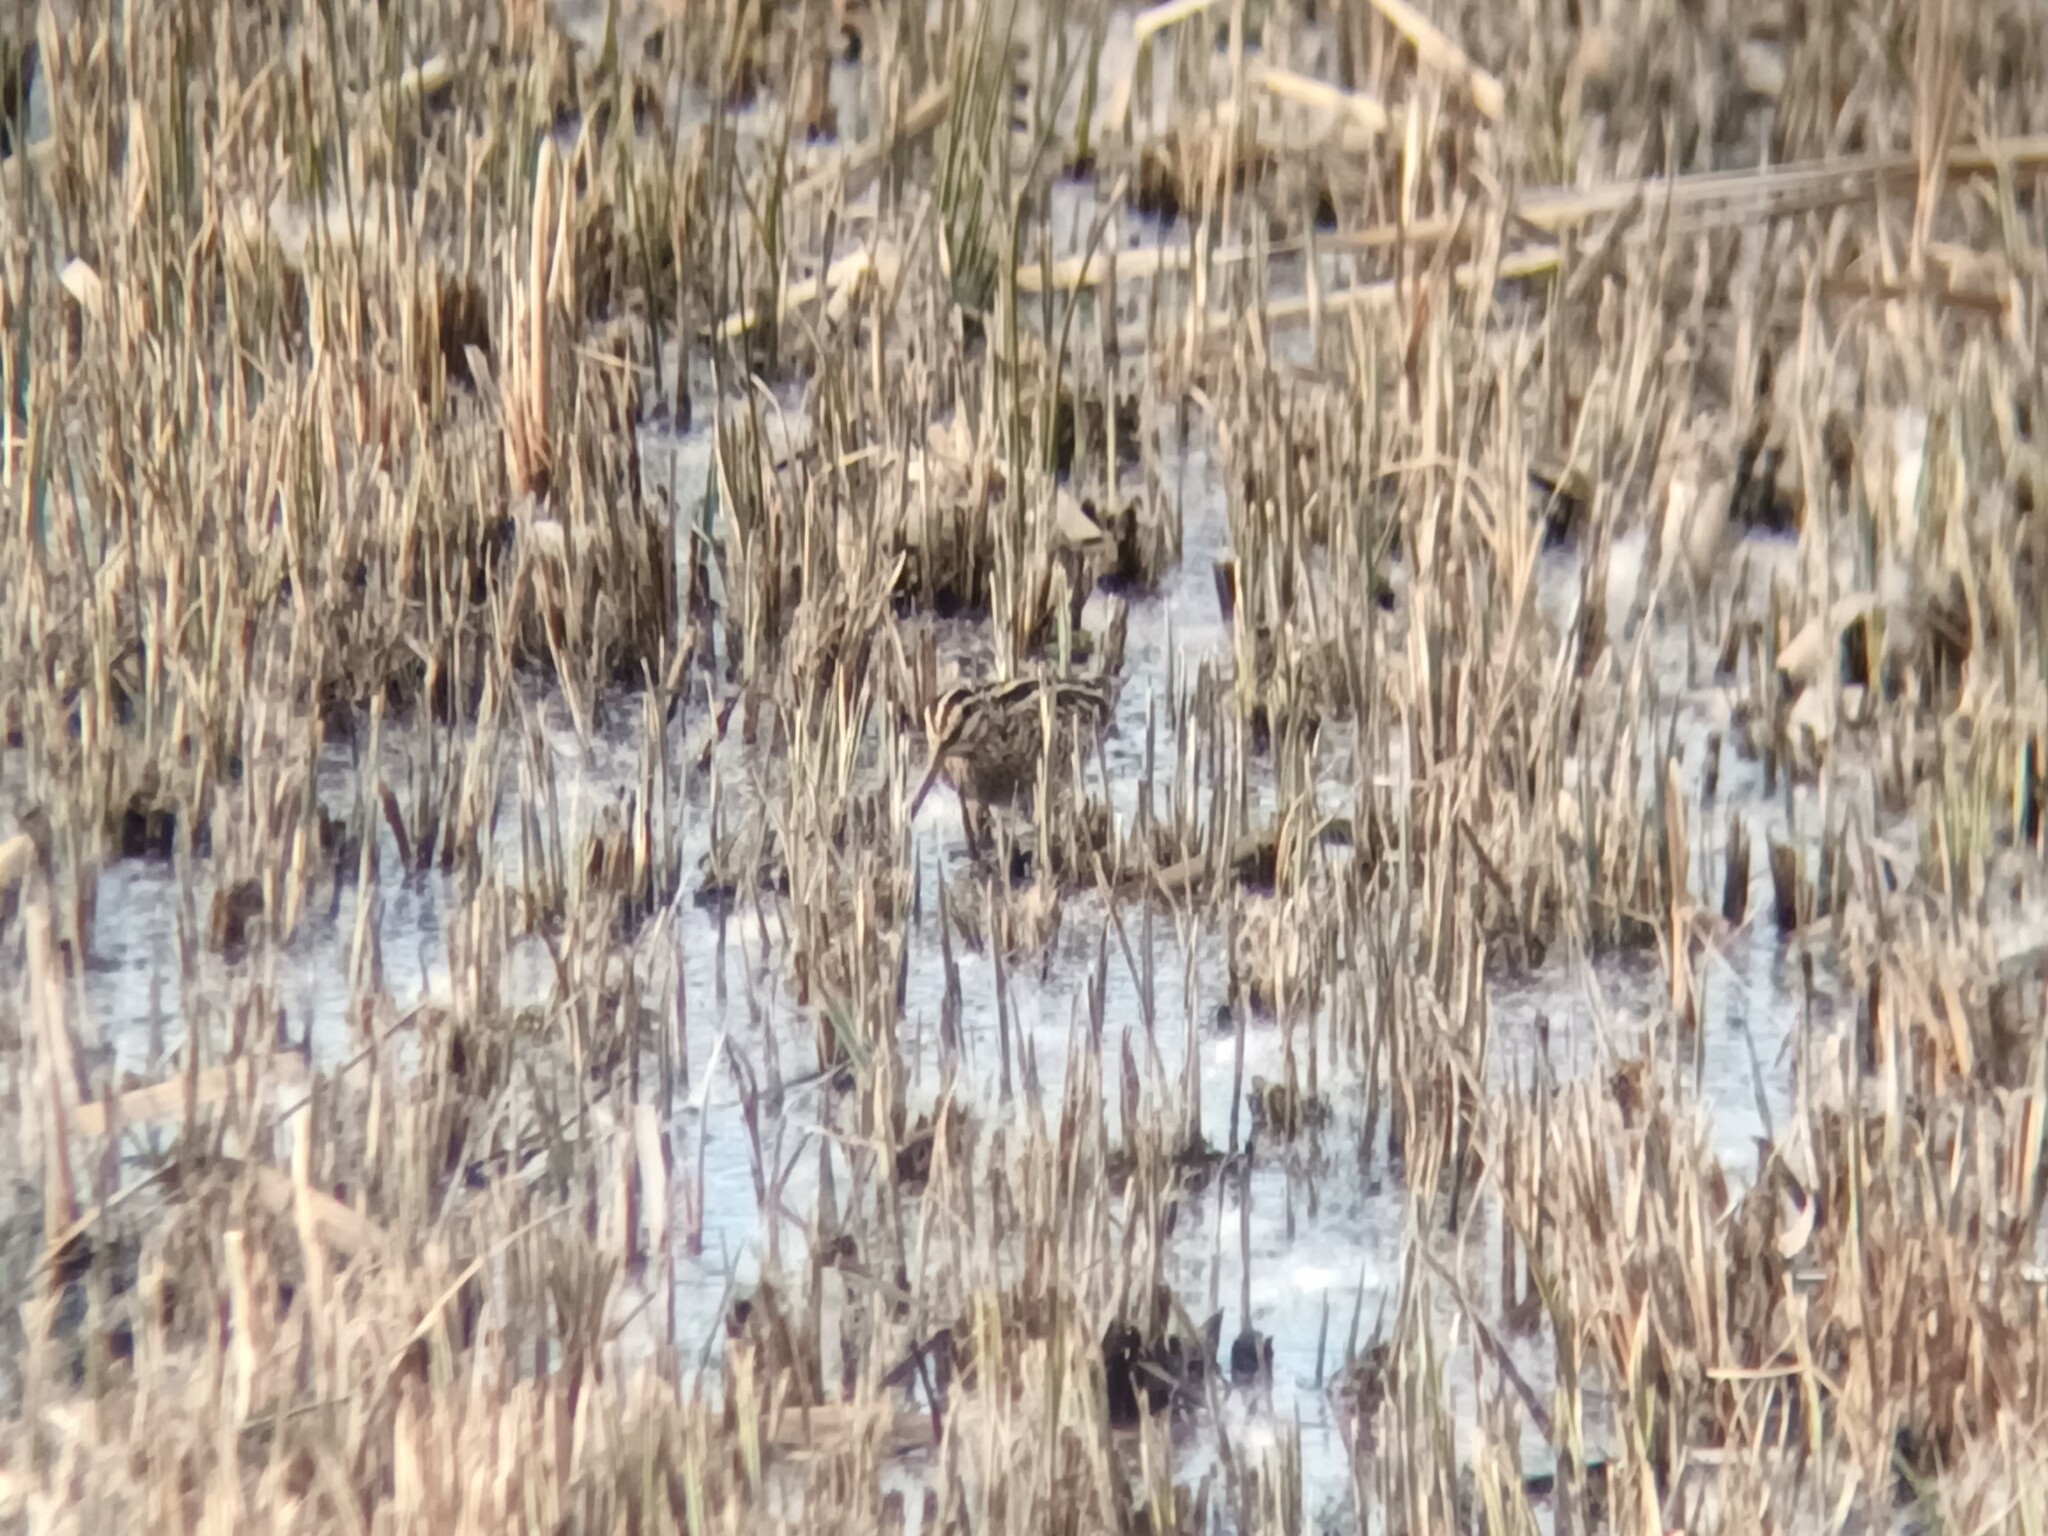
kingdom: Animalia
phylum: Chordata
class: Aves
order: Charadriiformes
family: Scolopacidae
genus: Gallinago
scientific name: Gallinago gallinago
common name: Common snipe
